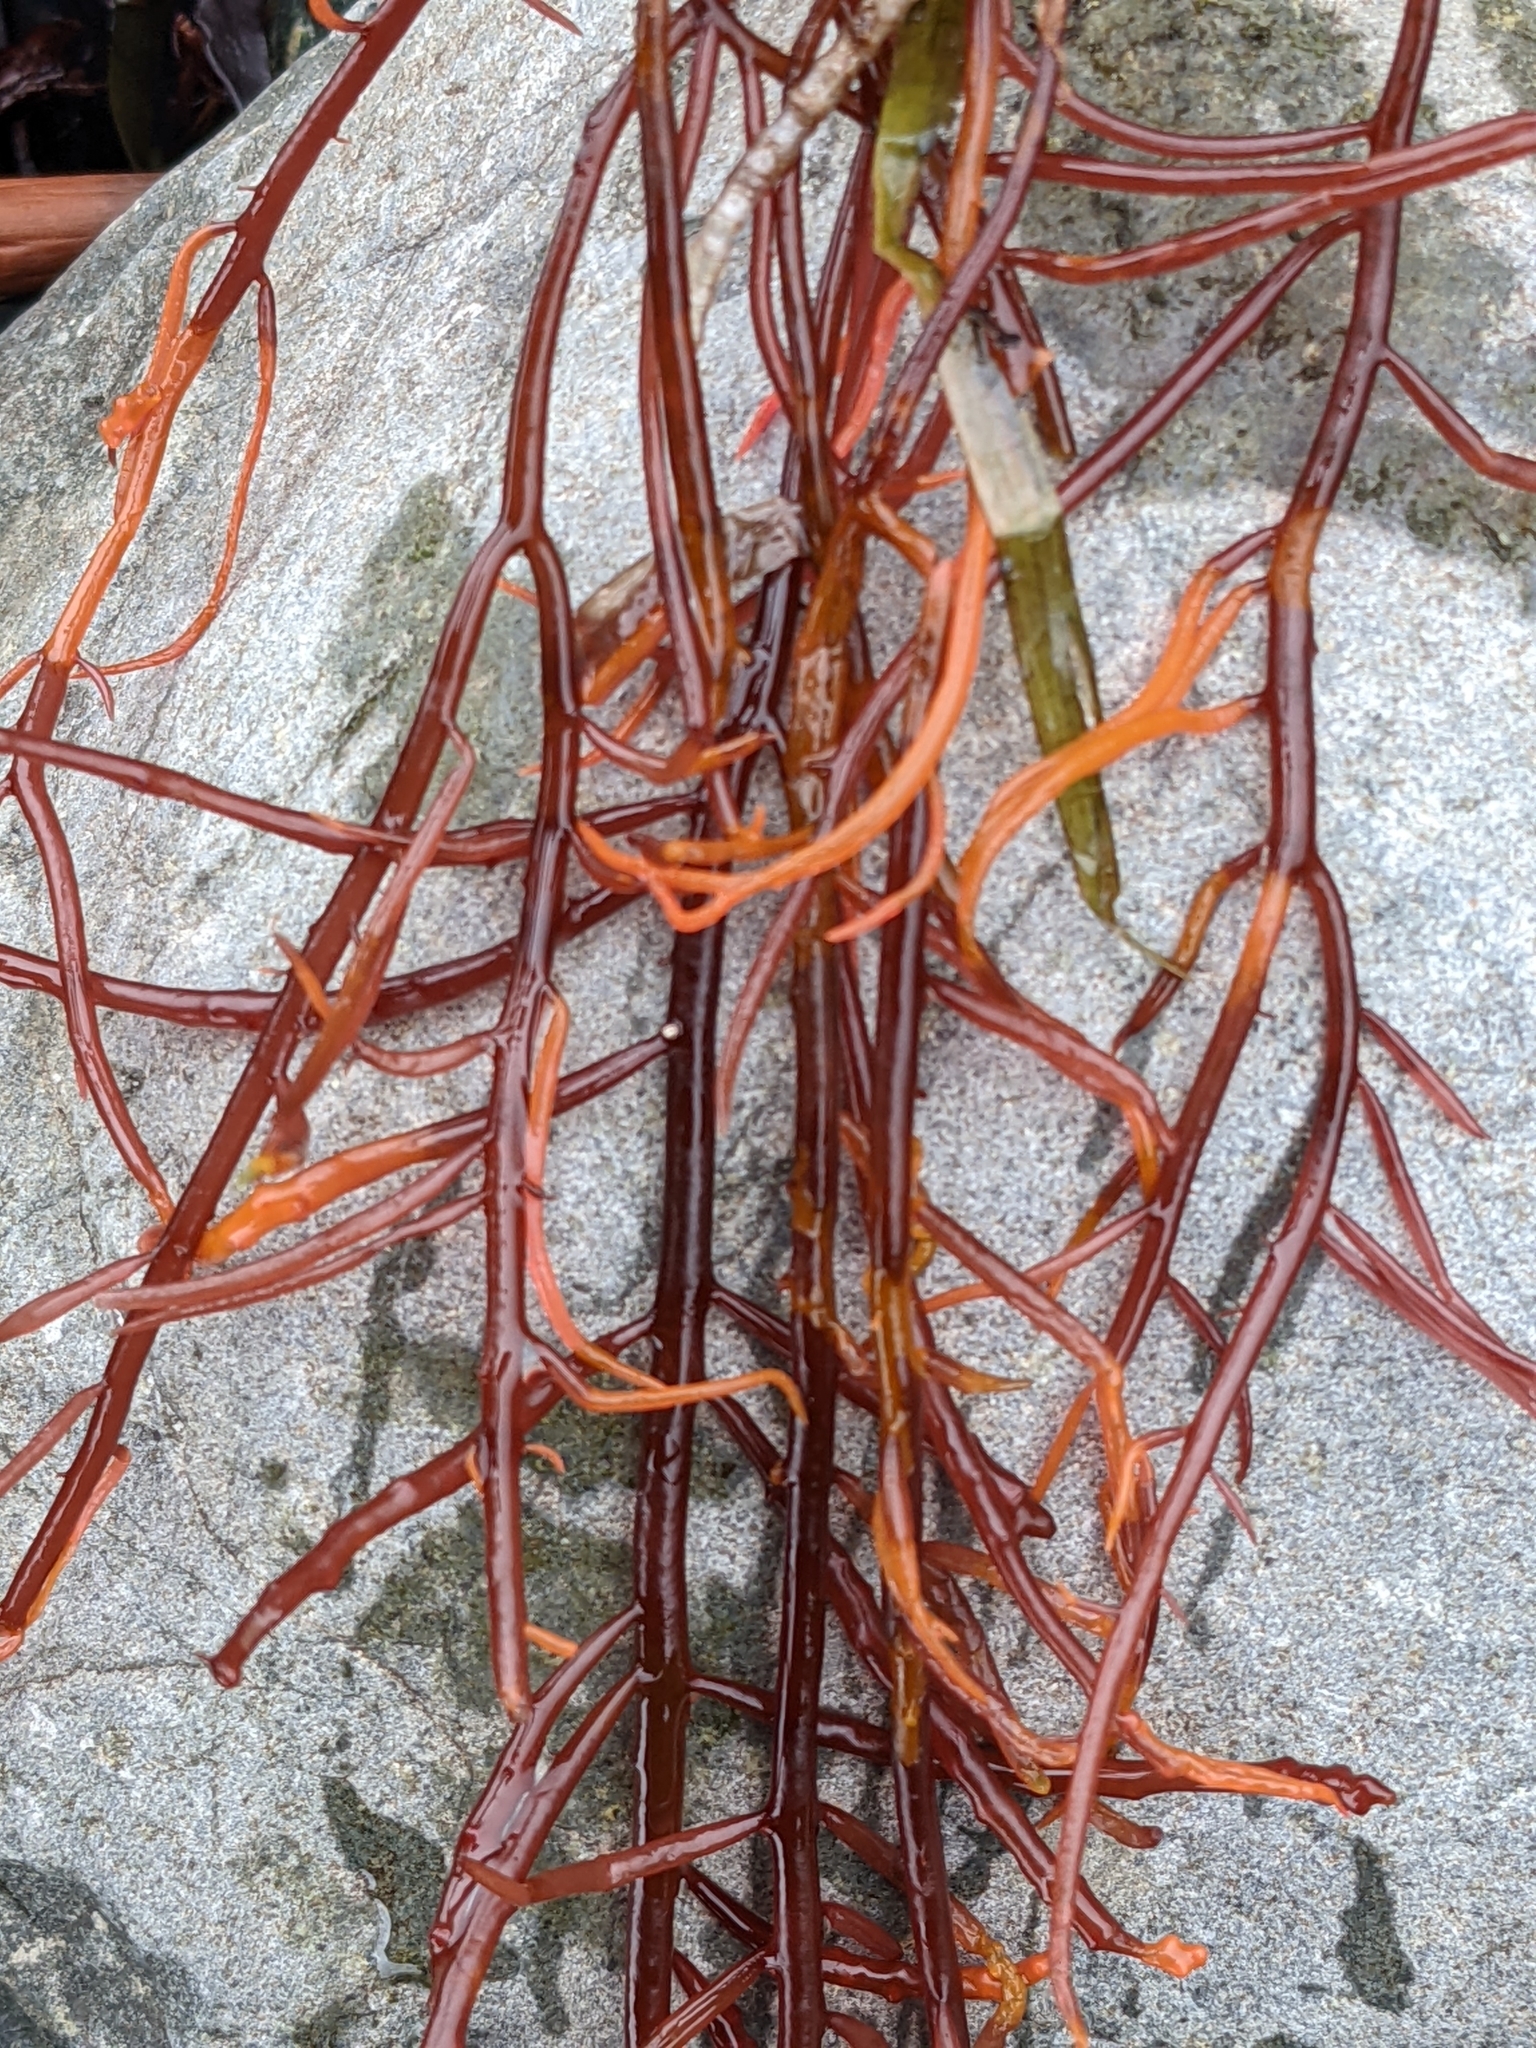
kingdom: Plantae
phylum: Rhodophyta
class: Florideophyceae
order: Gigartinales
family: Solieriaceae
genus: Sarcodiotheca
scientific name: Sarcodiotheca gaudichaudii
